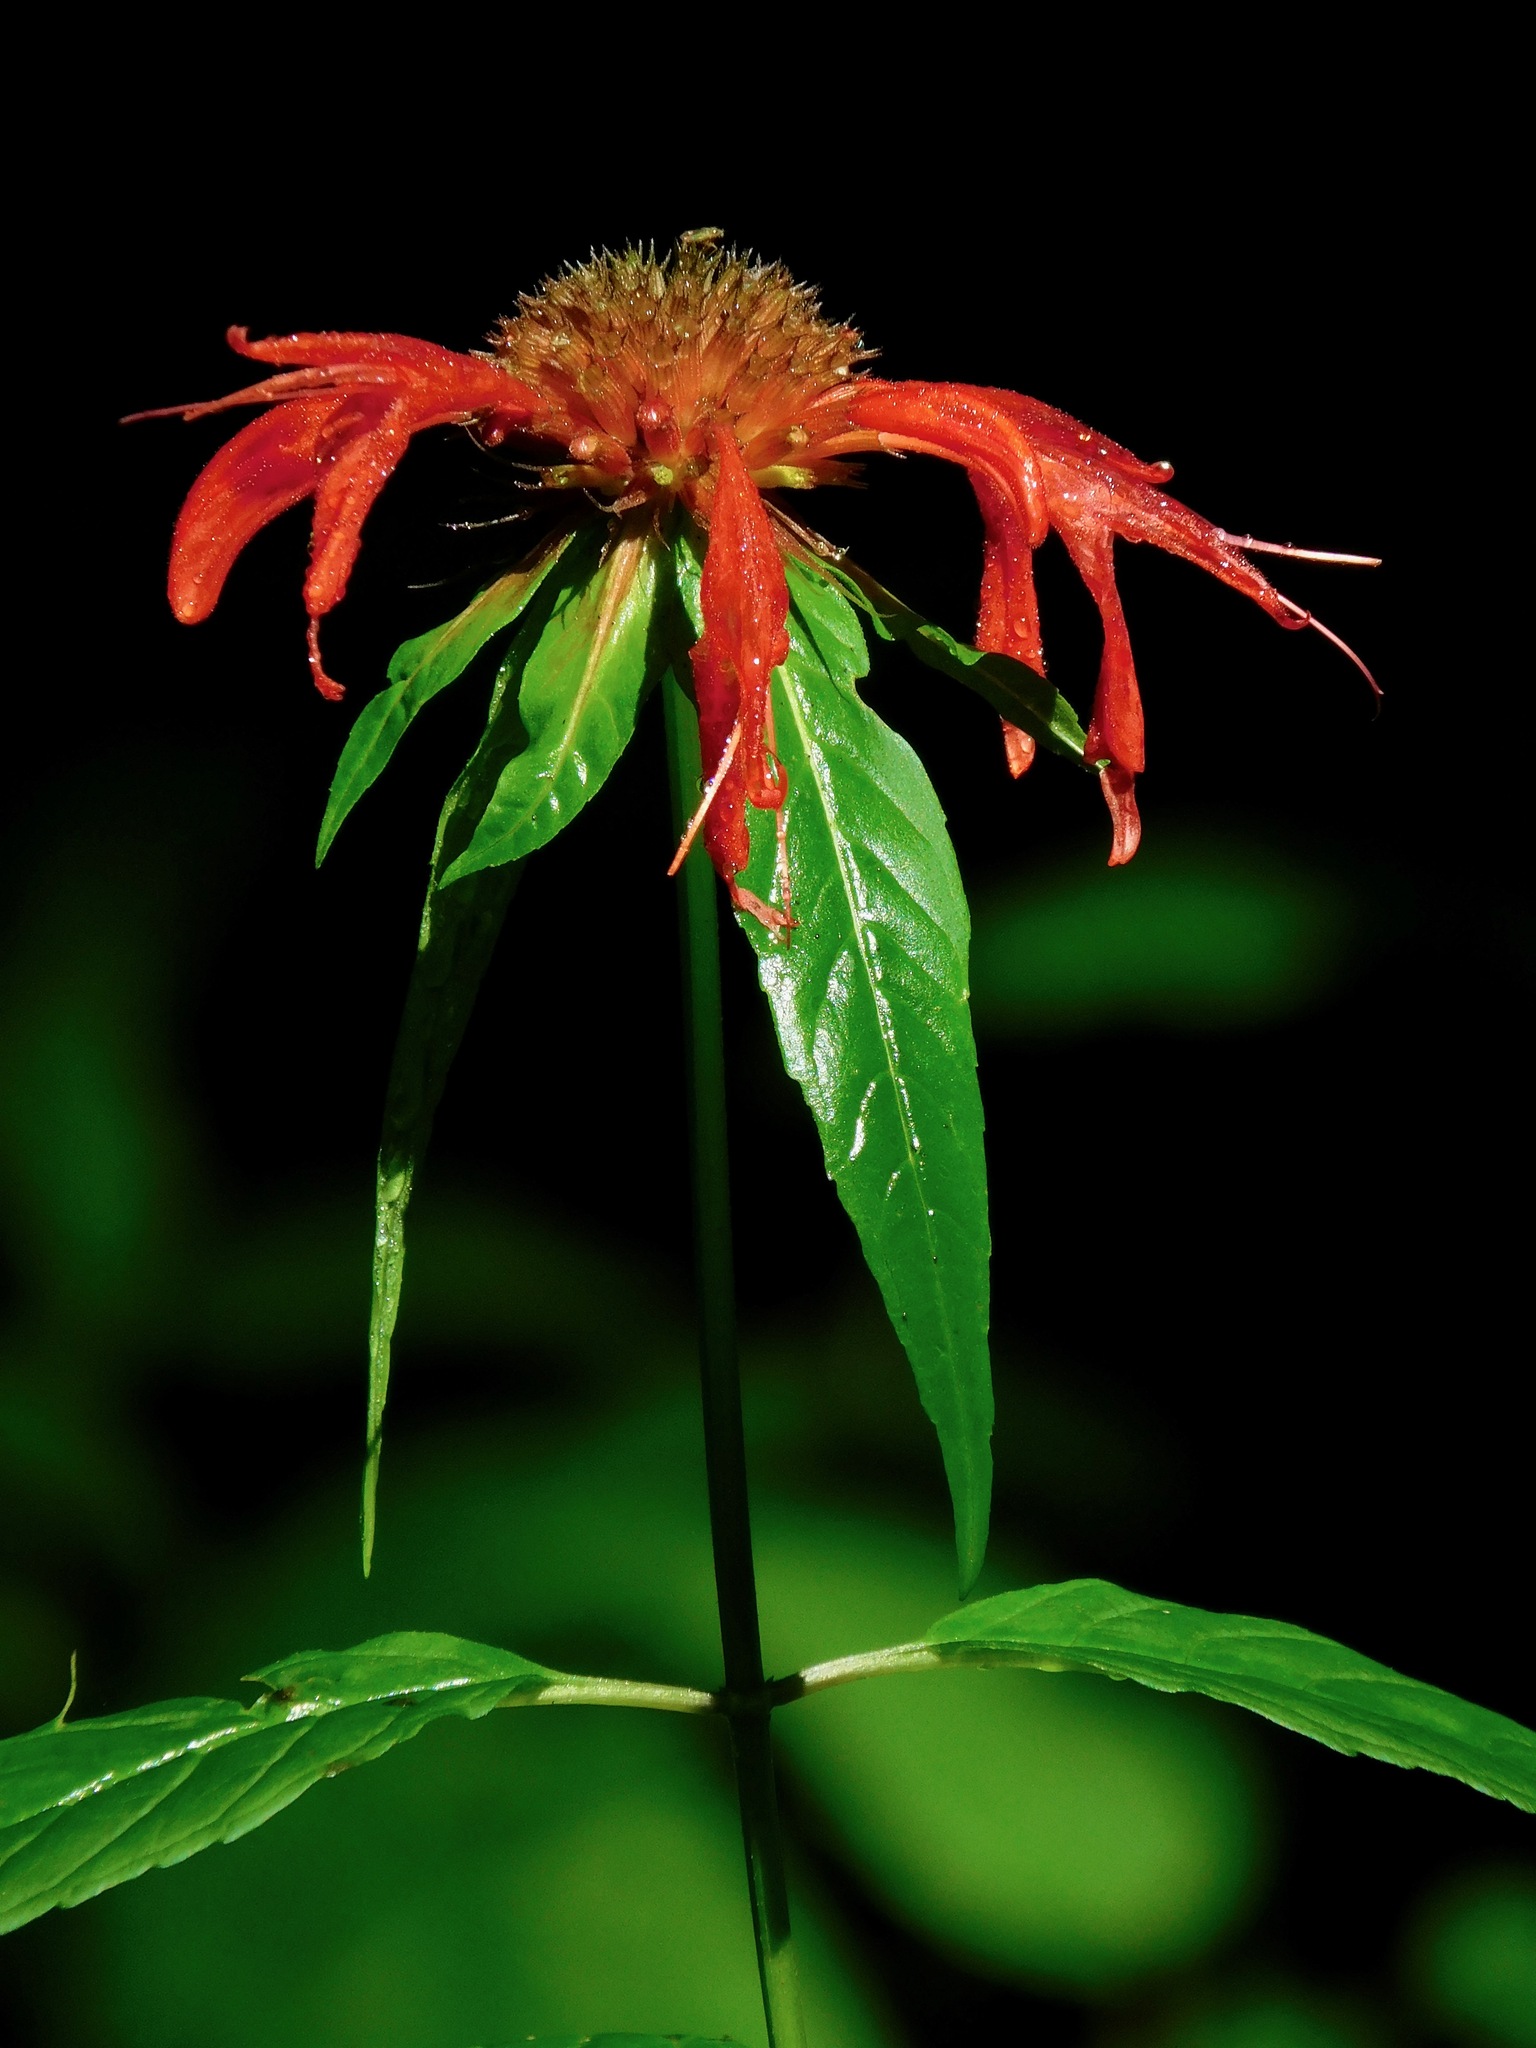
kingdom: Plantae
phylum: Tracheophyta
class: Magnoliopsida
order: Lamiales
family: Lamiaceae
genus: Monarda
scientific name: Monarda didyma
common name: Beebalm
